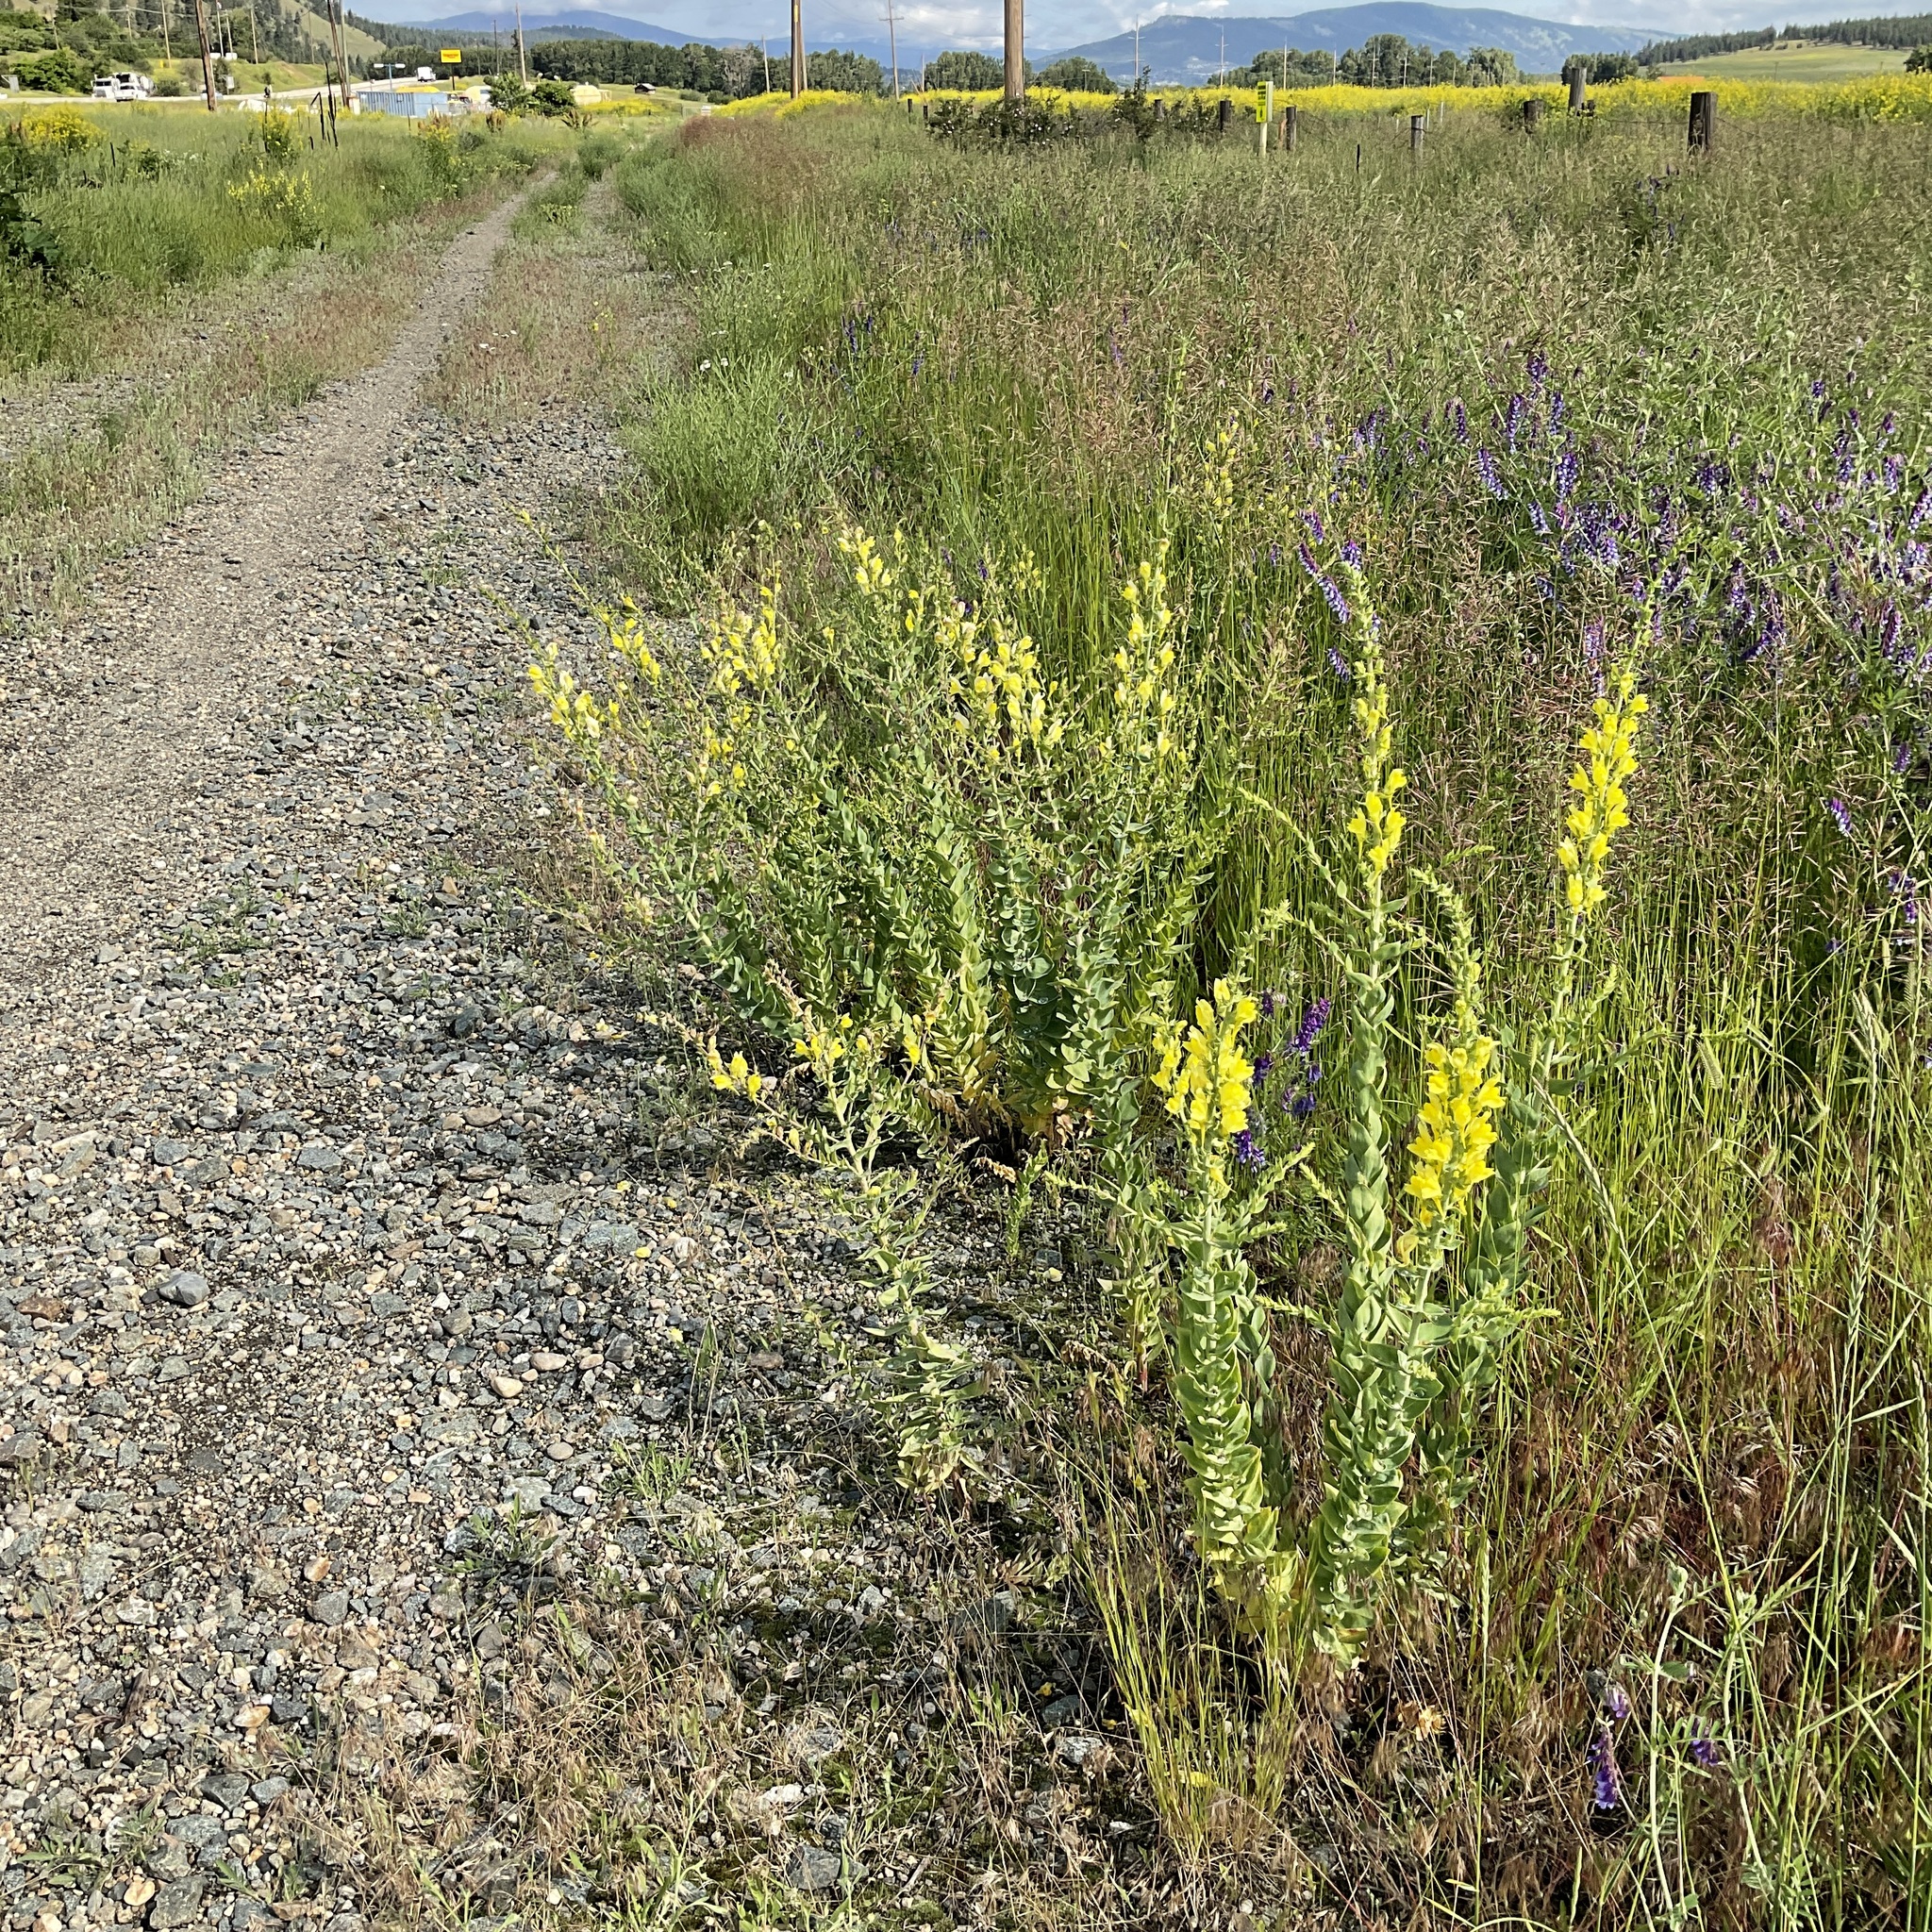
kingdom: Plantae
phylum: Tracheophyta
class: Magnoliopsida
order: Lamiales
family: Plantaginaceae
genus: Linaria
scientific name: Linaria dalmatica
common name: Dalmatian toadflax
